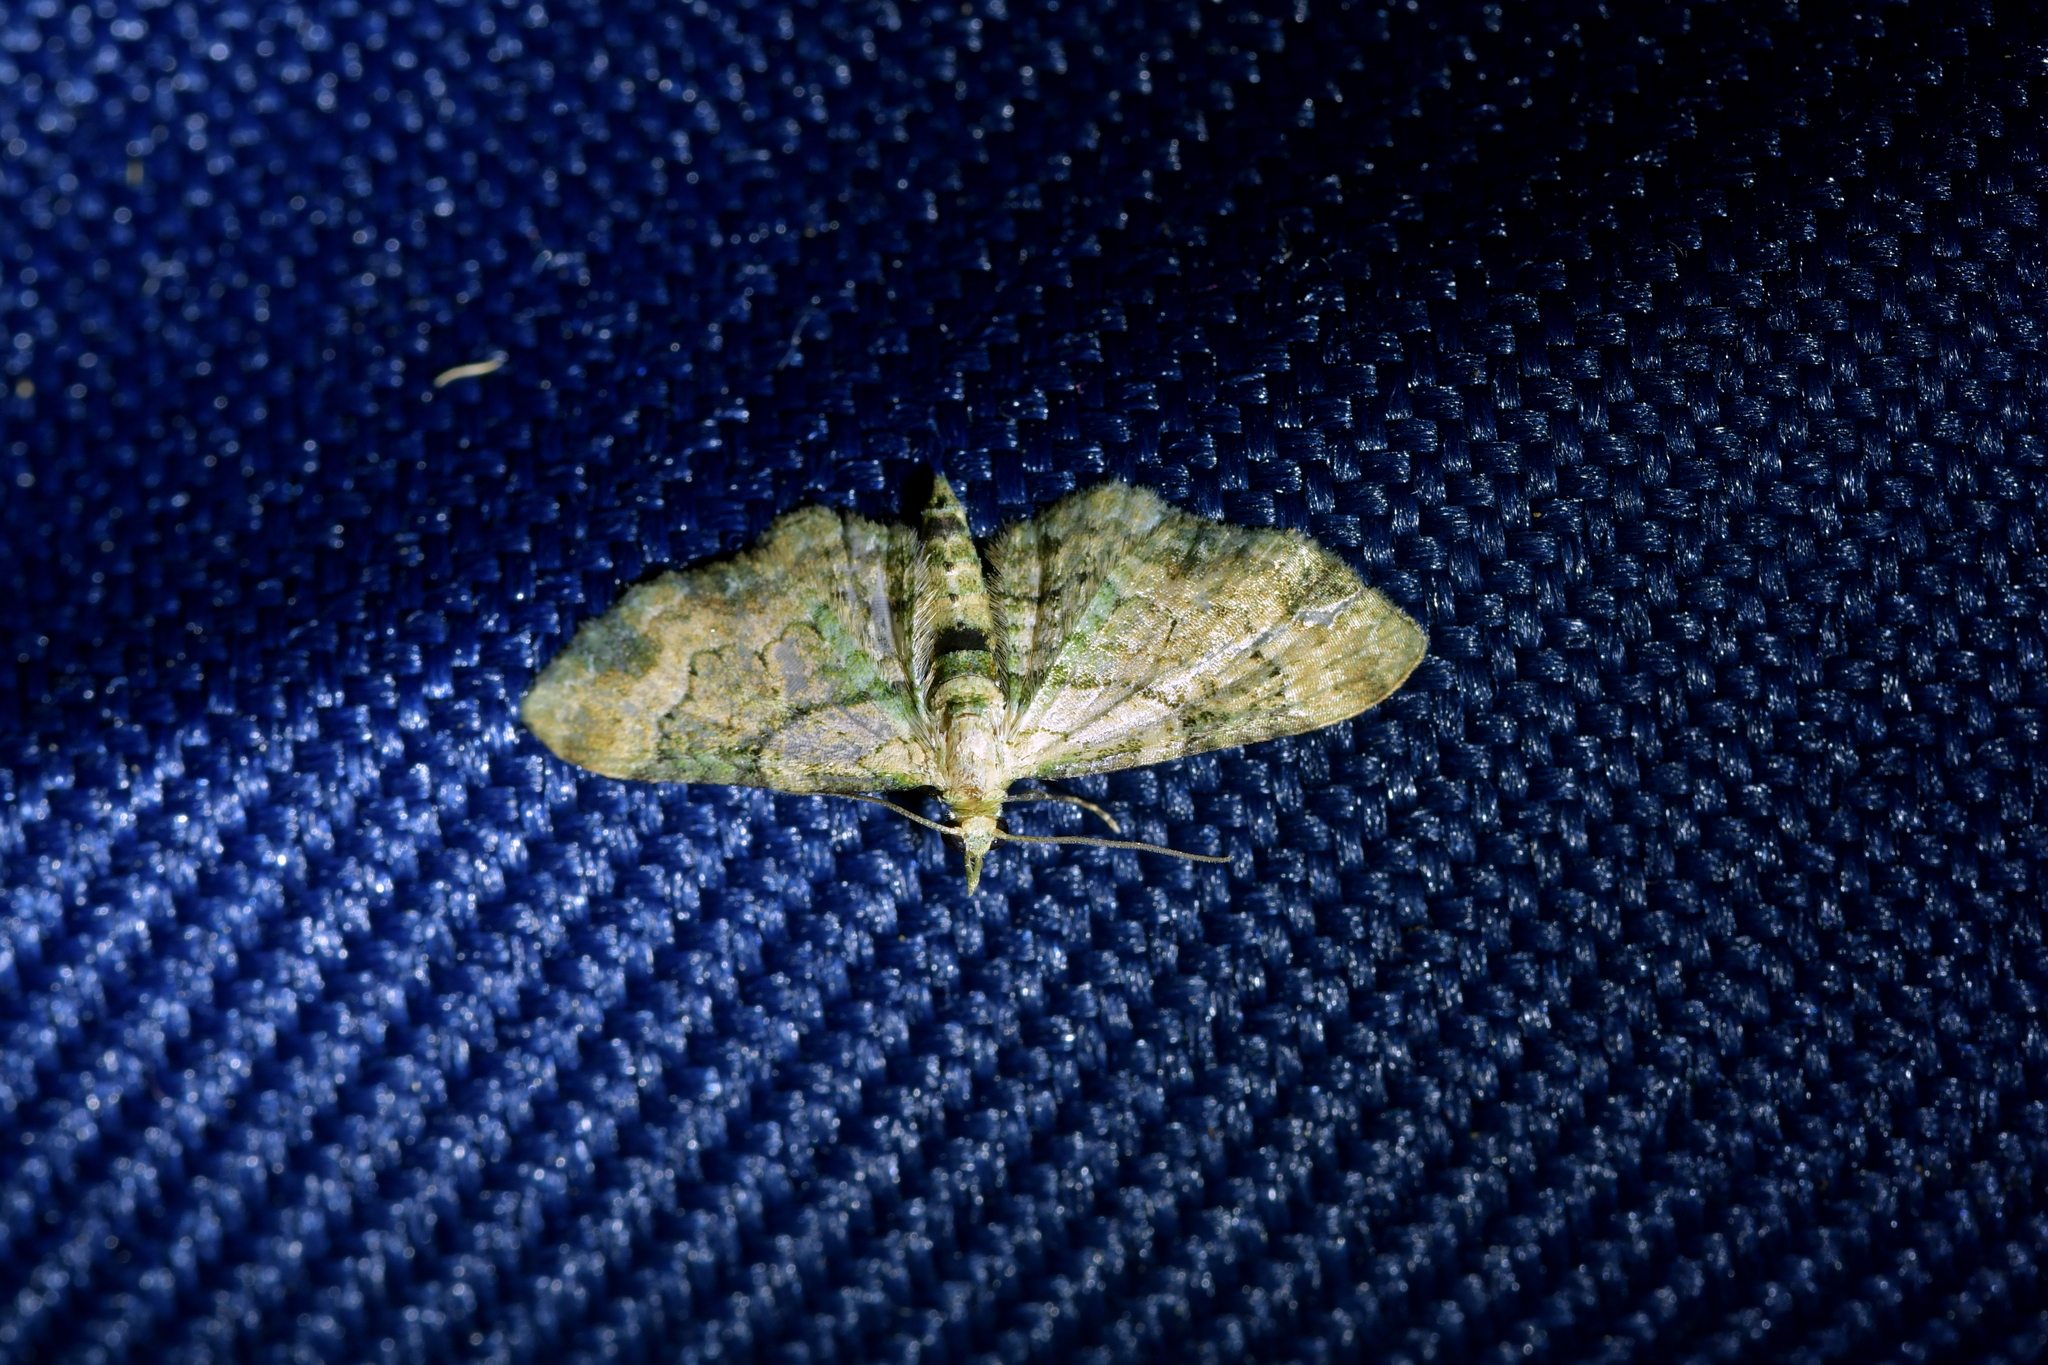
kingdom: Animalia
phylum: Arthropoda
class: Insecta
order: Lepidoptera
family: Geometridae
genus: Chloroclystis
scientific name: Chloroclystis
